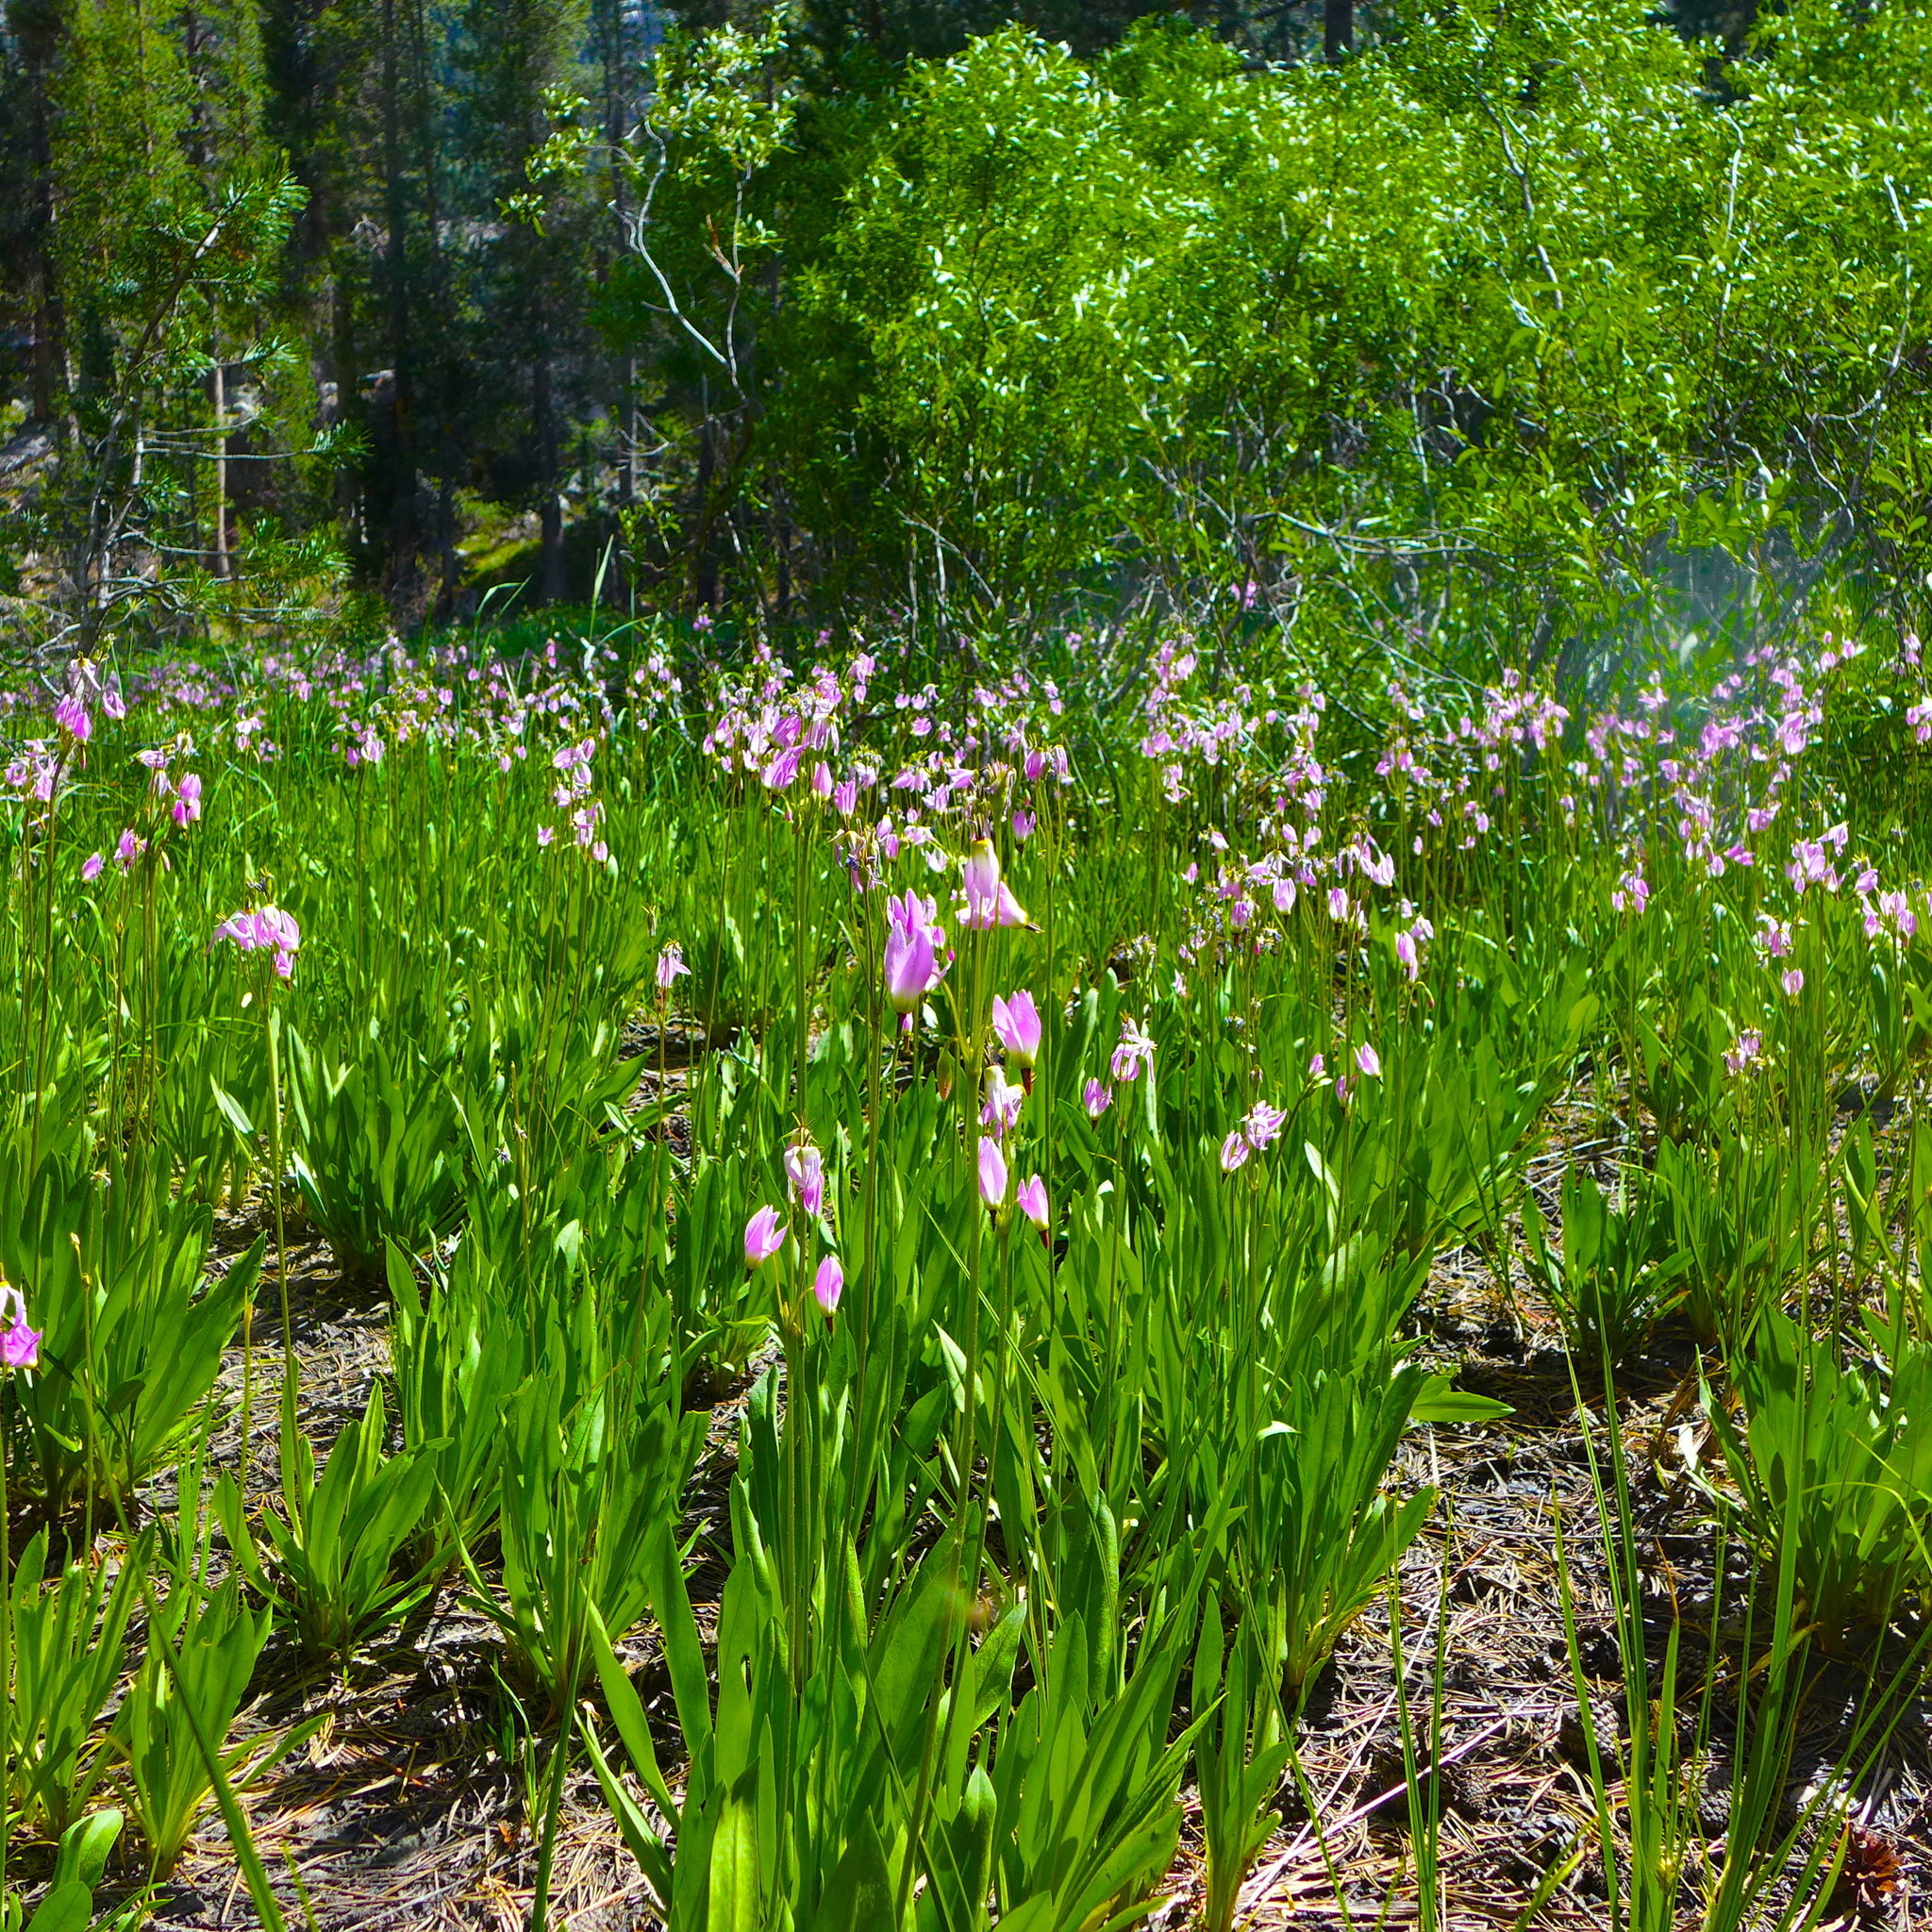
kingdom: Plantae
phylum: Tracheophyta
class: Magnoliopsida
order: Ericales
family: Primulaceae
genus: Dodecatheon
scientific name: Dodecatheon alpinum
